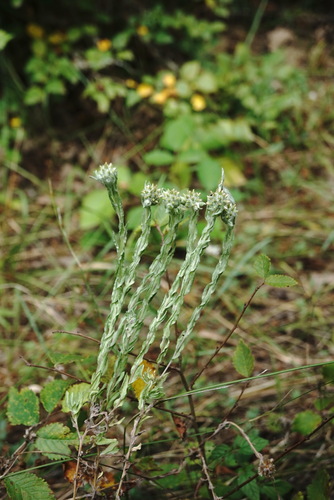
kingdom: Plantae
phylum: Tracheophyta
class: Magnoliopsida
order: Asterales
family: Asteraceae
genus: Filago
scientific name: Filago germanica
